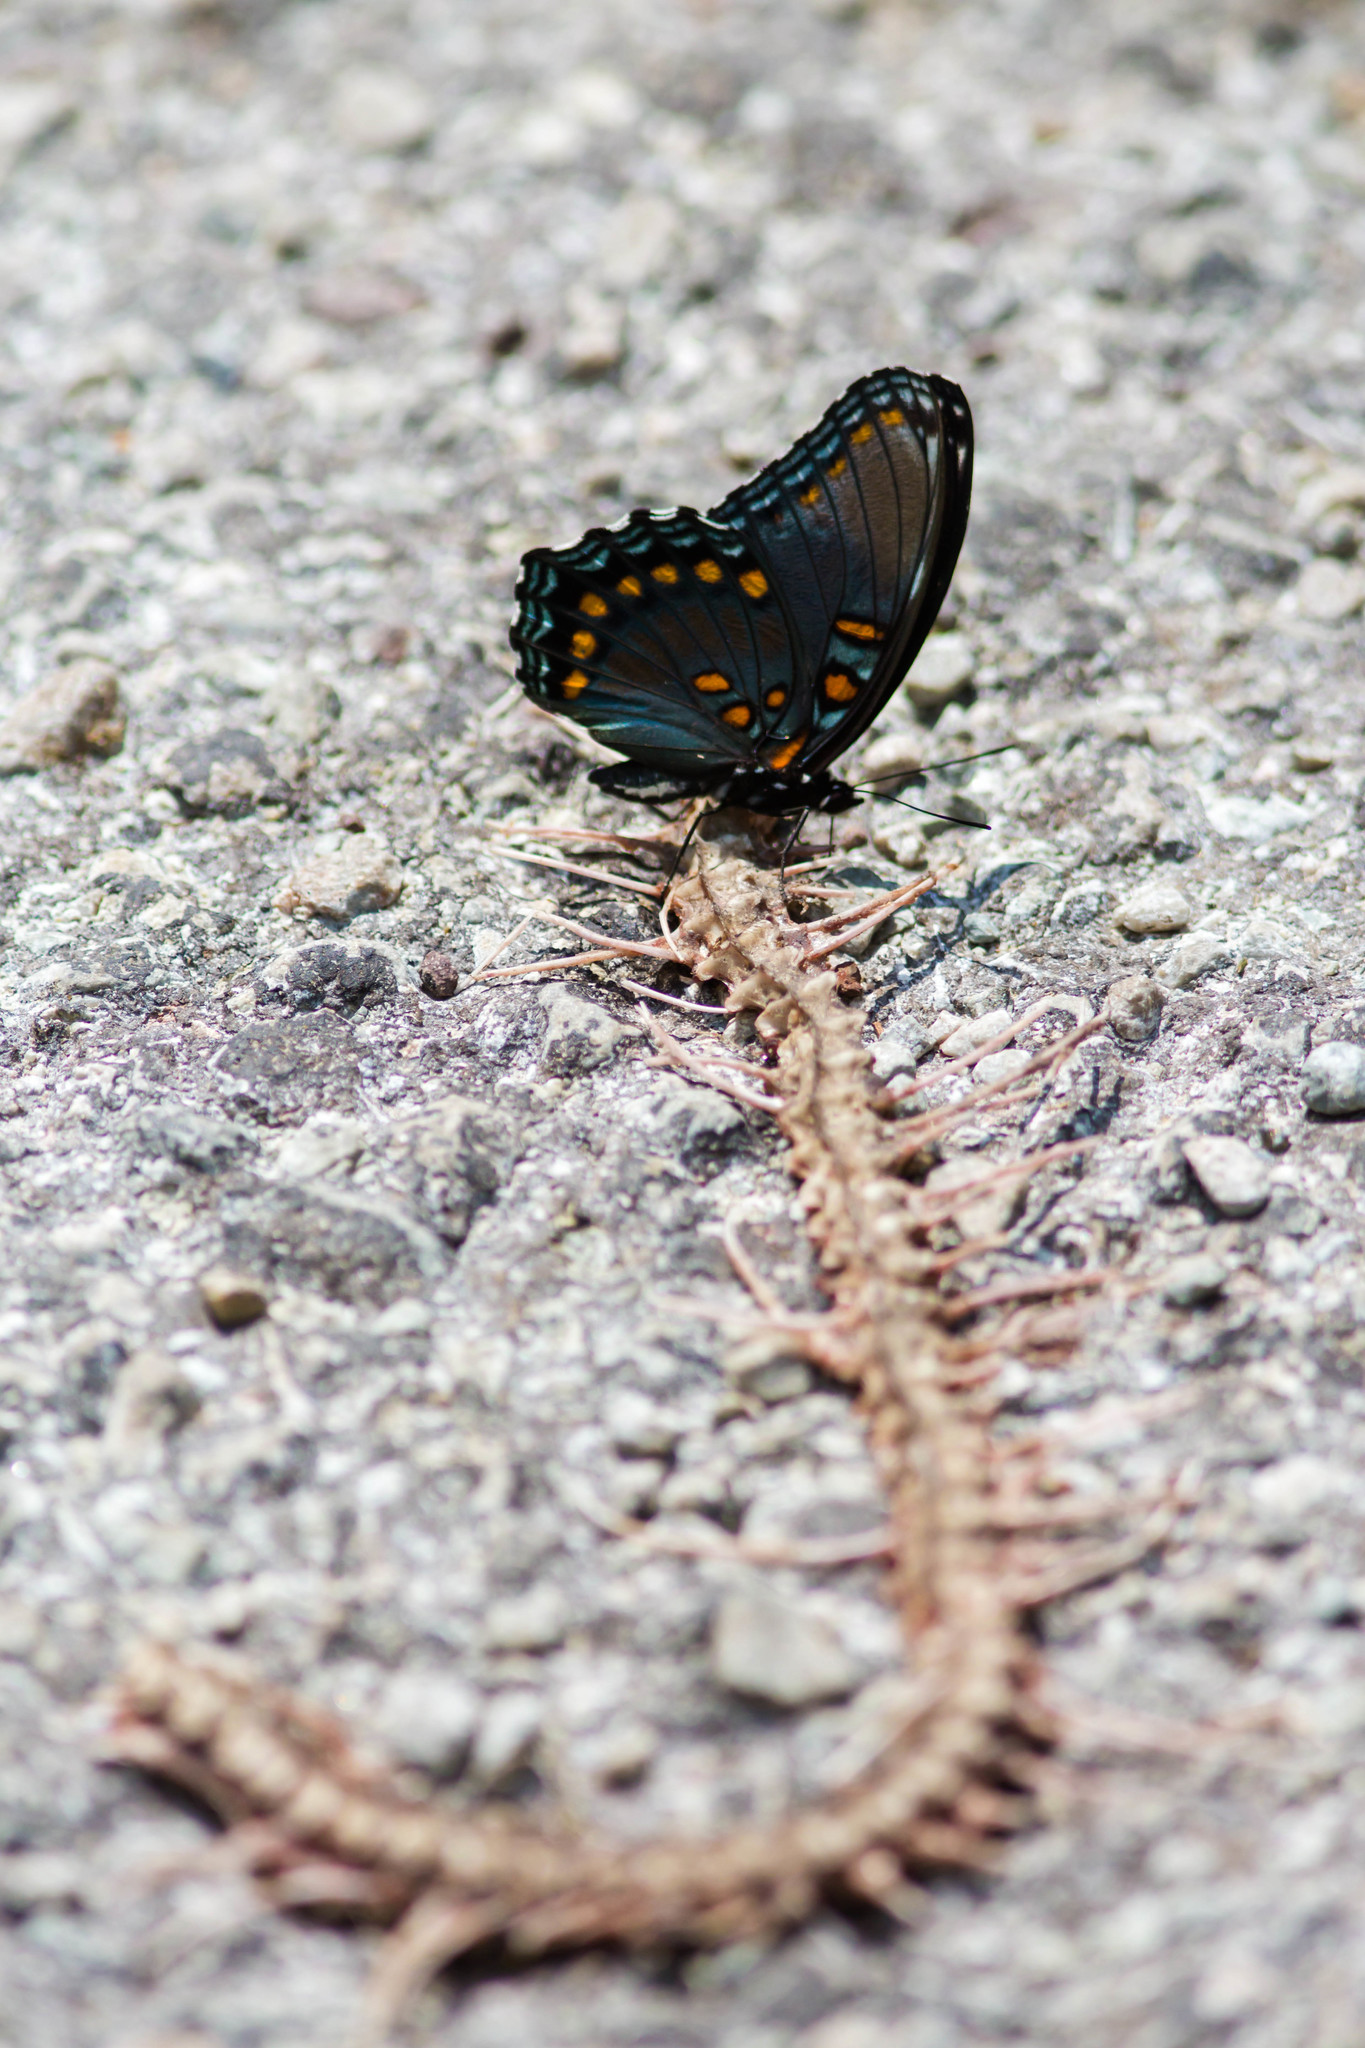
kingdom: Animalia
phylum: Arthropoda
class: Insecta
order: Lepidoptera
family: Nymphalidae
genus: Limenitis
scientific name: Limenitis astyanax
